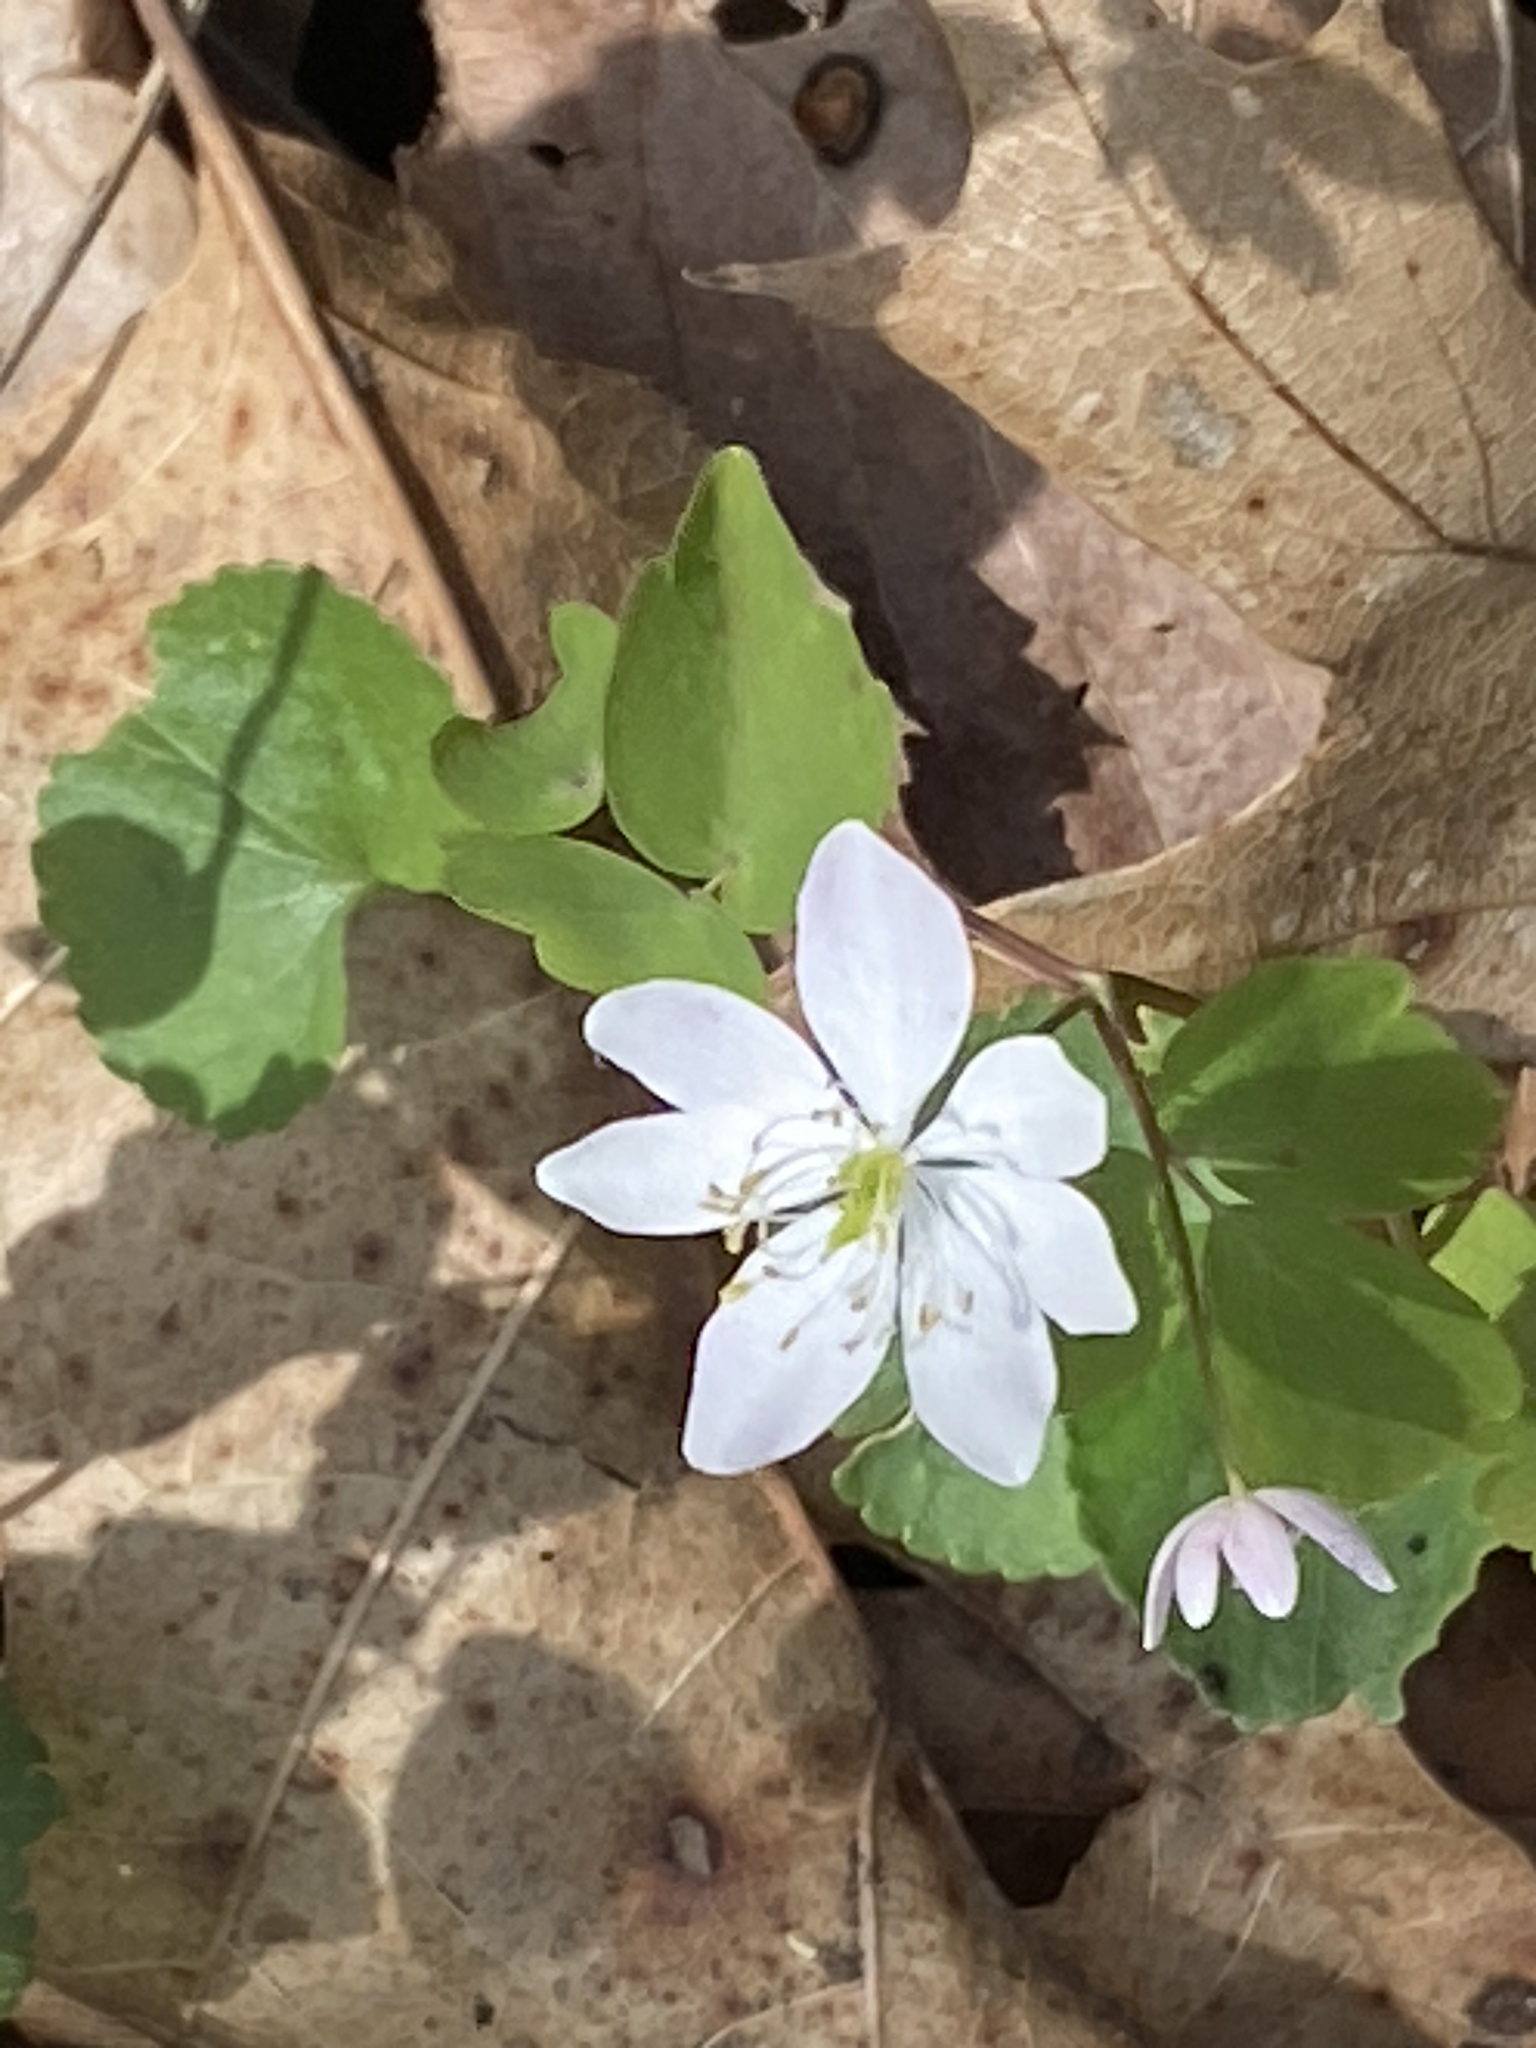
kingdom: Plantae
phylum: Tracheophyta
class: Magnoliopsida
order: Ranunculales
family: Ranunculaceae
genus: Thalictrum
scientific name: Thalictrum thalictroides
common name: Rue-anemone
